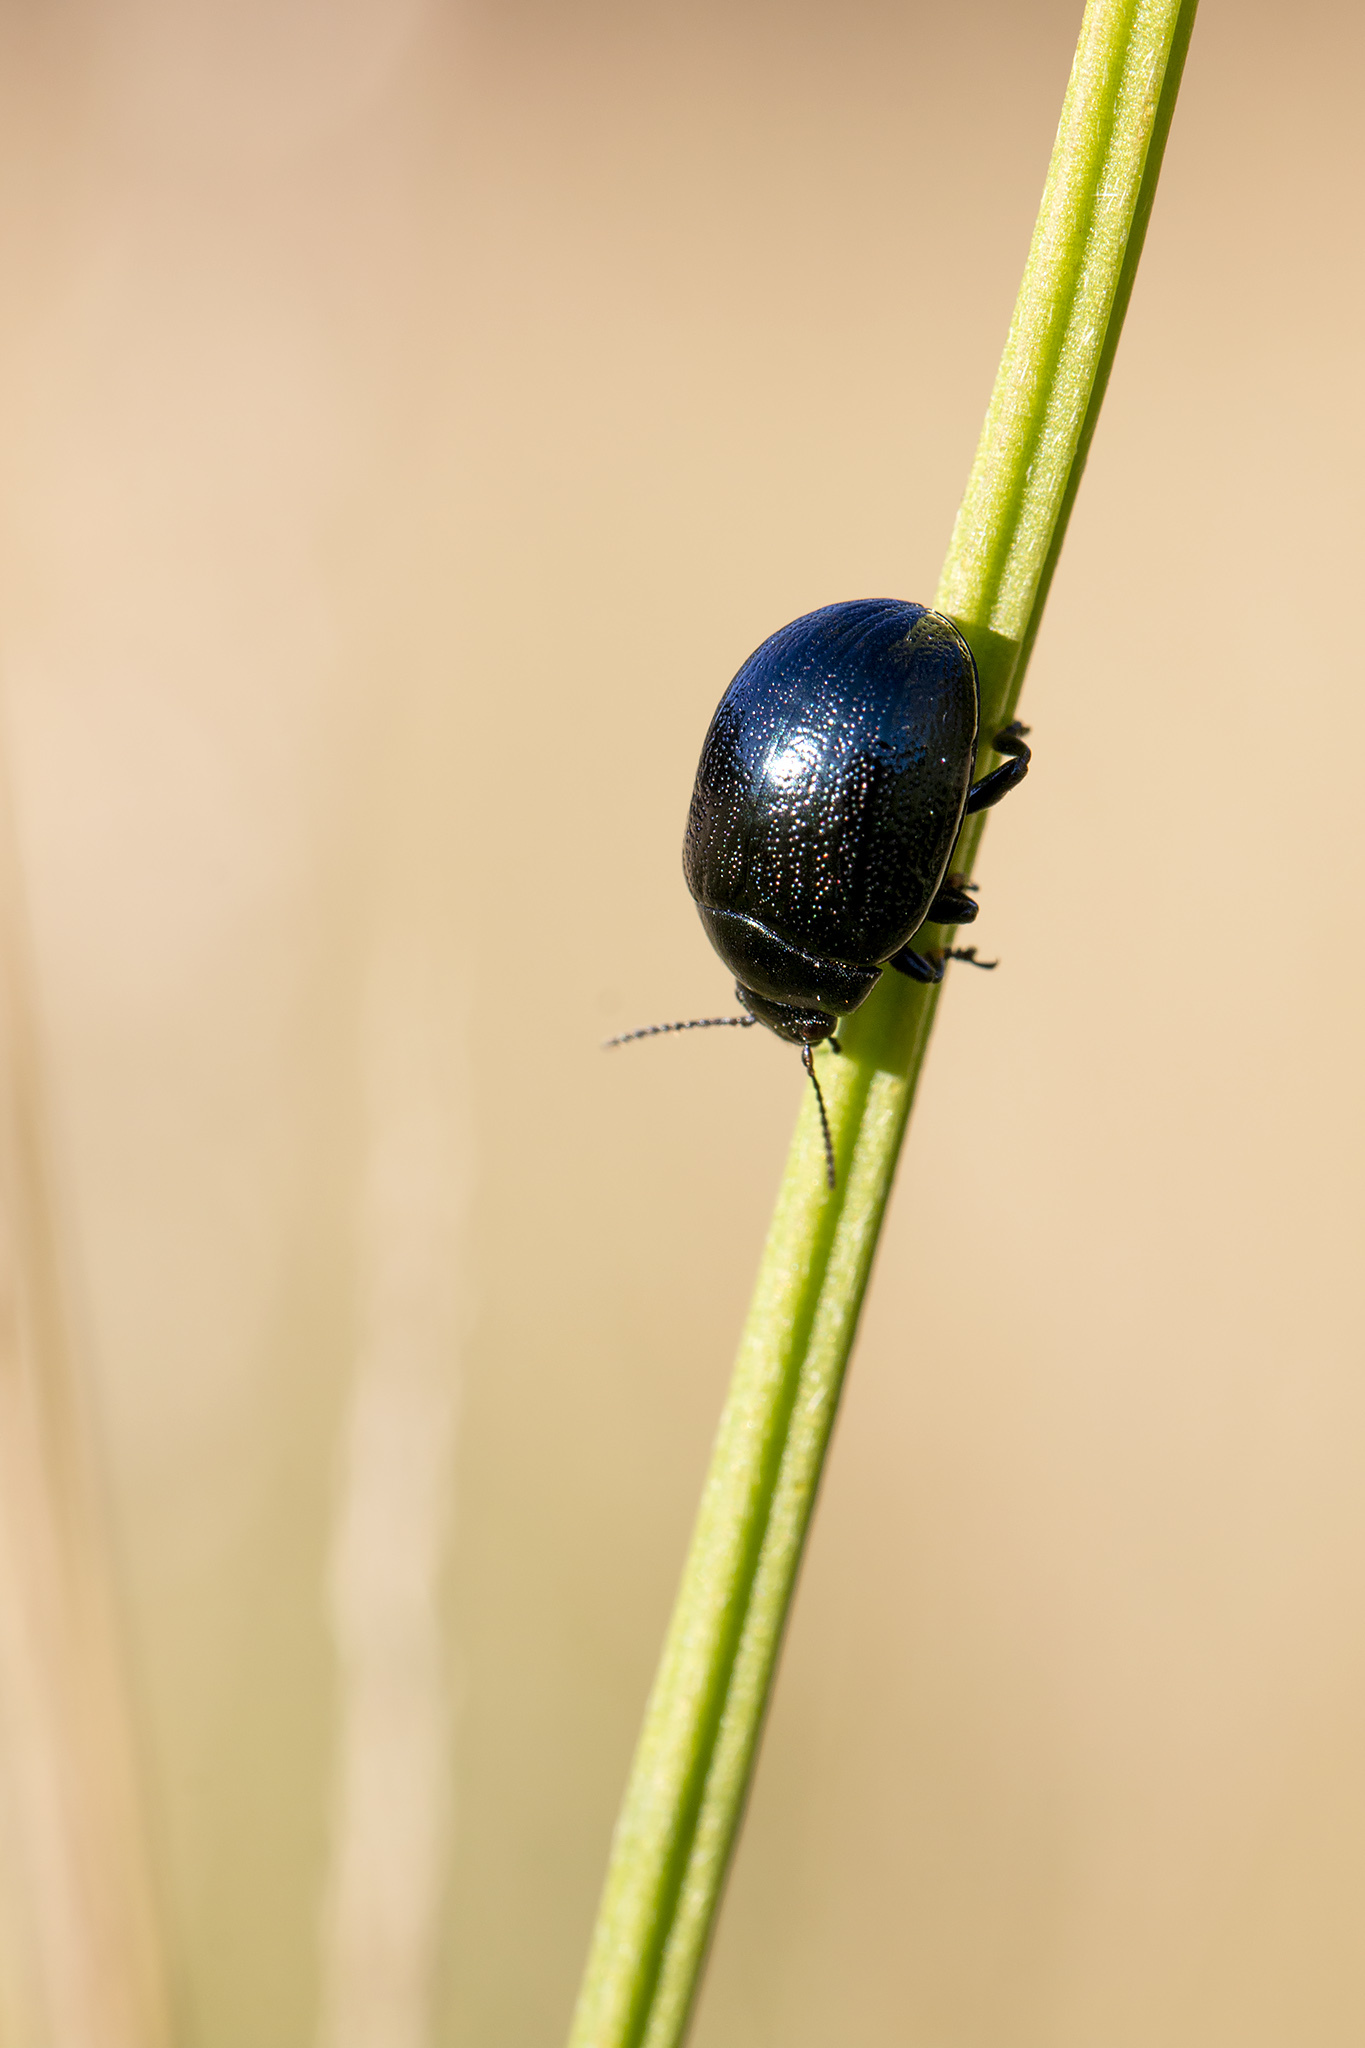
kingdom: Animalia
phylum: Arthropoda
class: Insecta
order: Coleoptera
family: Chrysomelidae
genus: Chrysolina
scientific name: Chrysolina haemoptera
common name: Plantain leaf beetle
